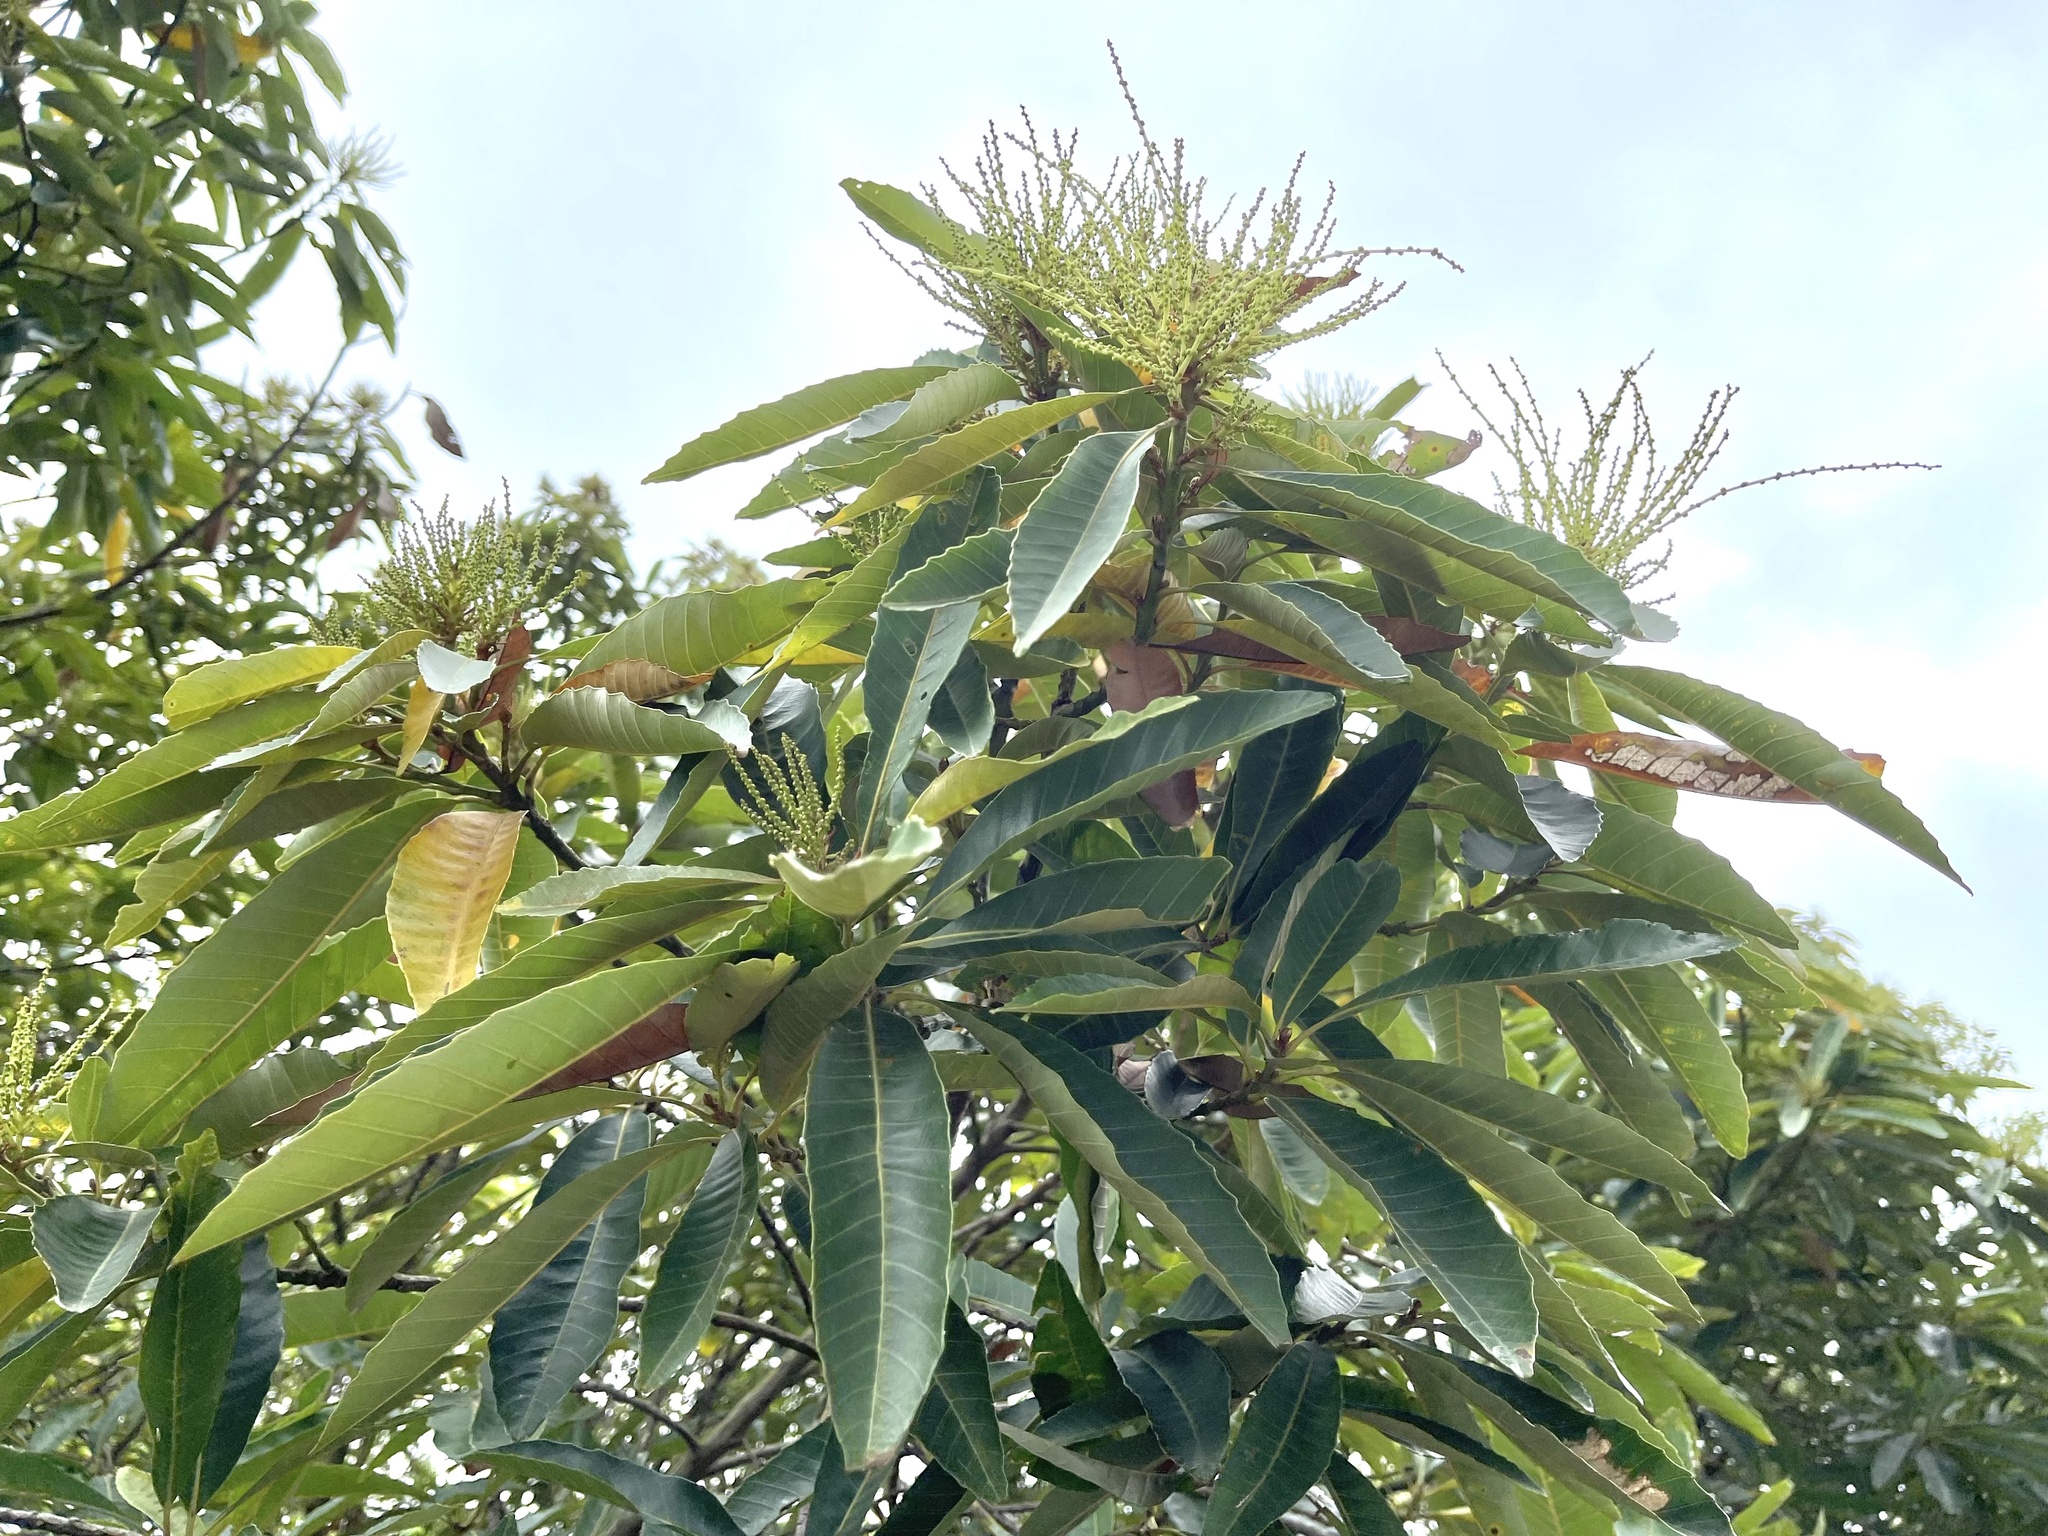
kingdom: Plantae
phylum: Tracheophyta
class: Magnoliopsida
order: Fagales
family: Fagaceae
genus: Castanopsis
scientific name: Castanopsis fissa
